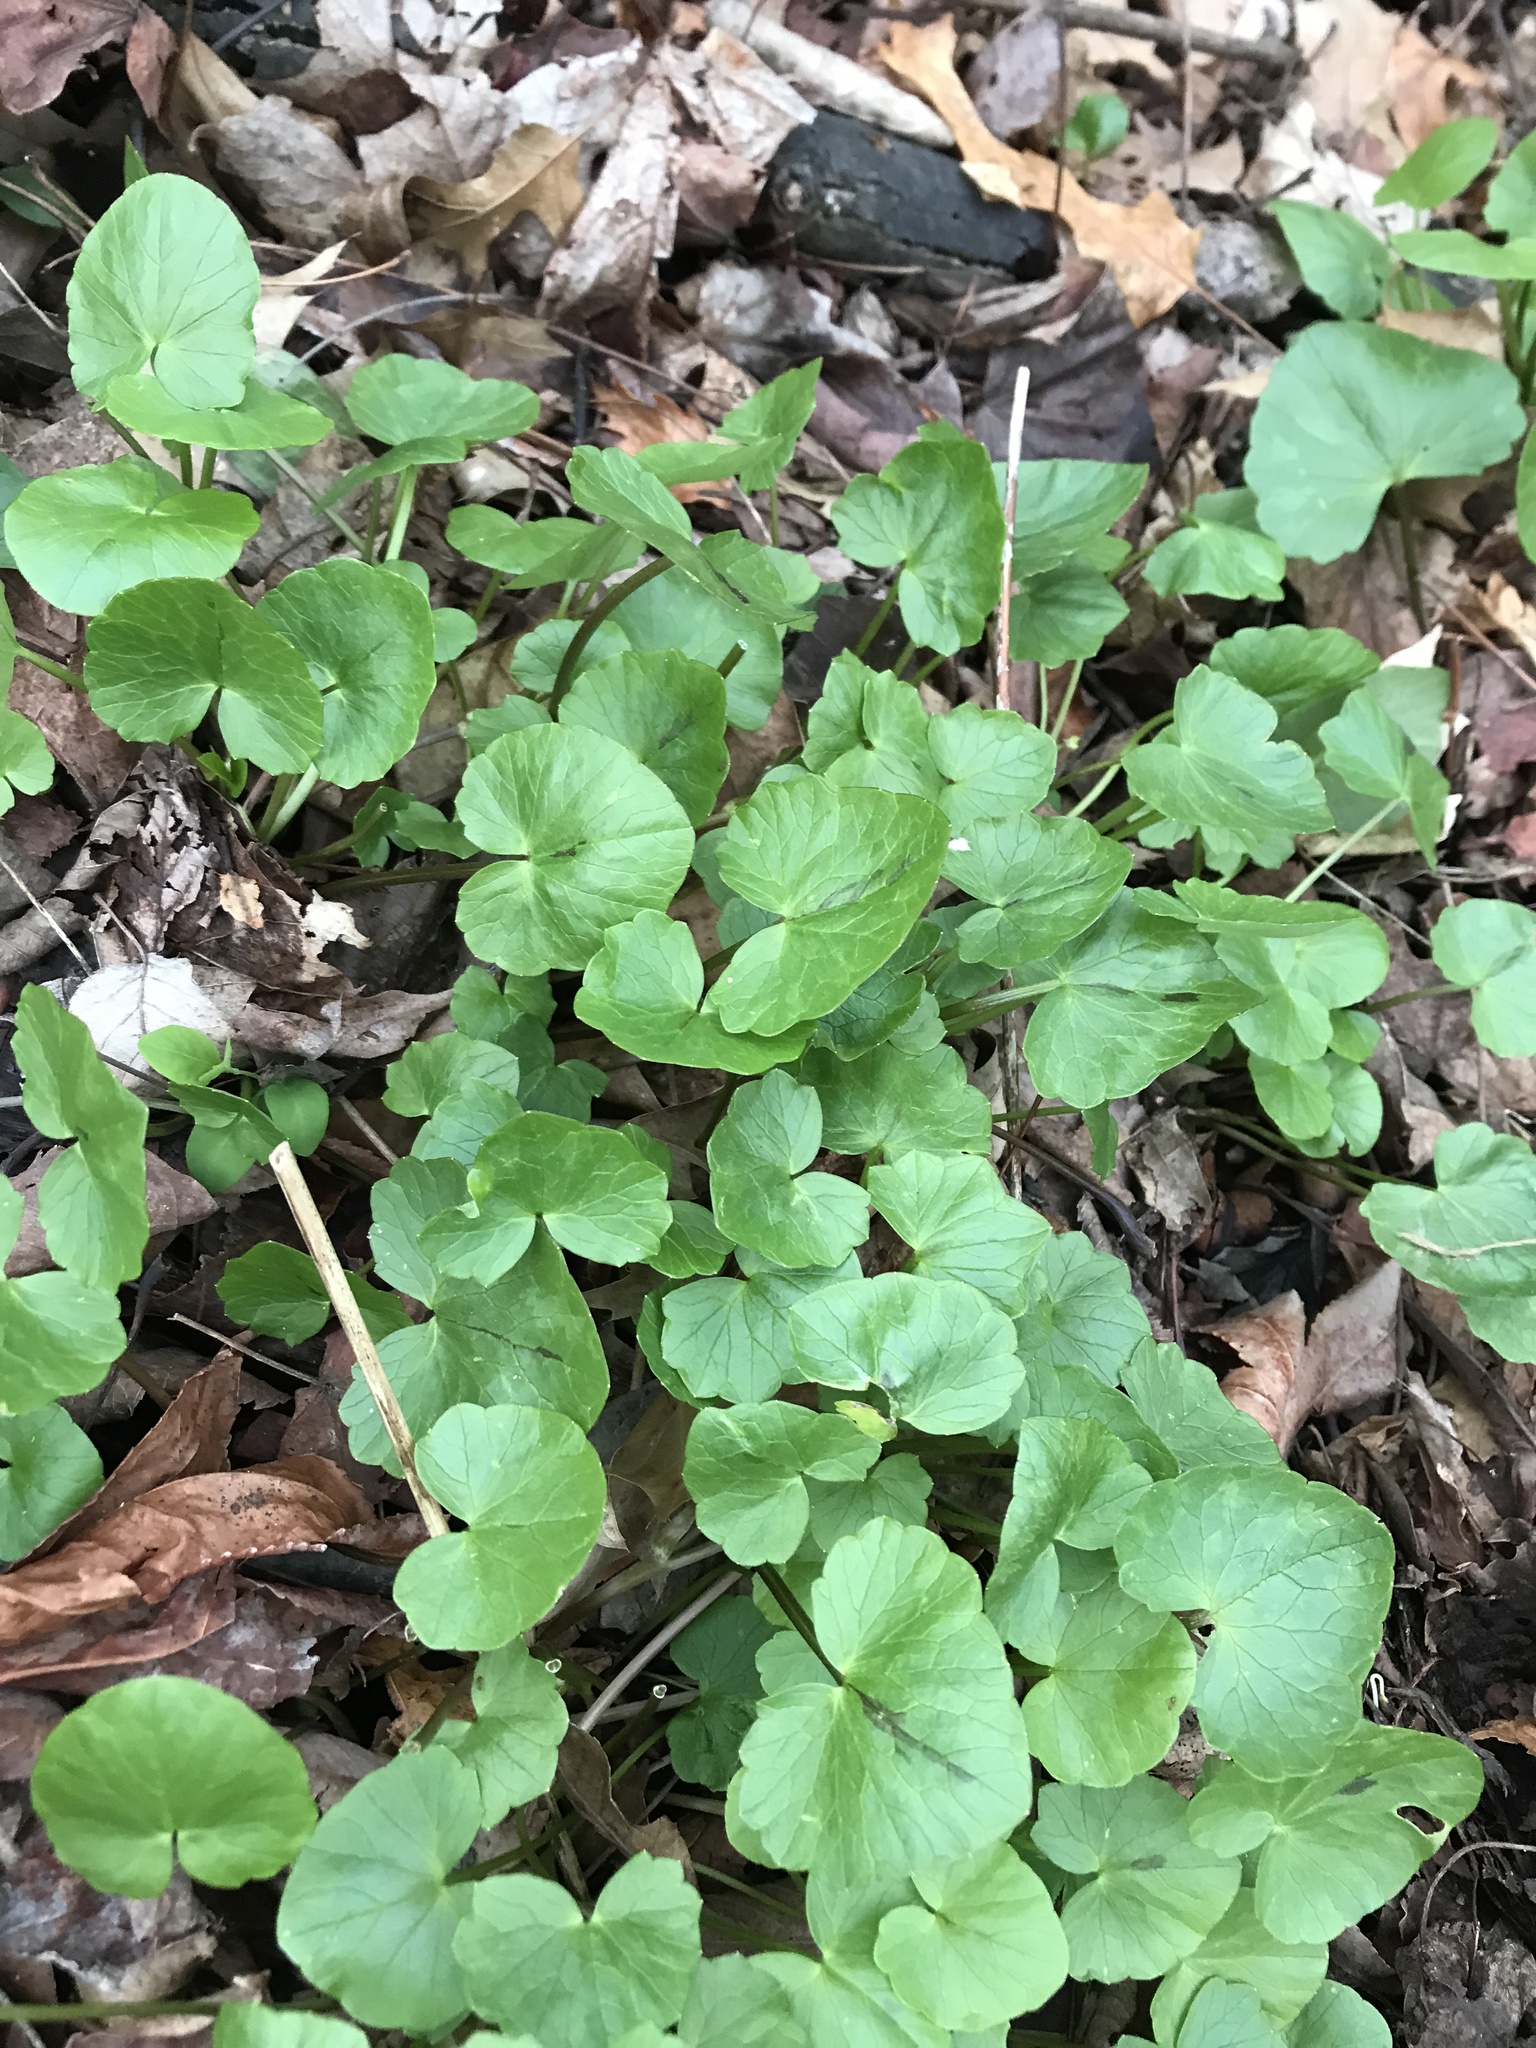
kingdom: Plantae
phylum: Tracheophyta
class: Magnoliopsida
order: Ranunculales
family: Ranunculaceae
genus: Ficaria
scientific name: Ficaria verna
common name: Lesser celandine
